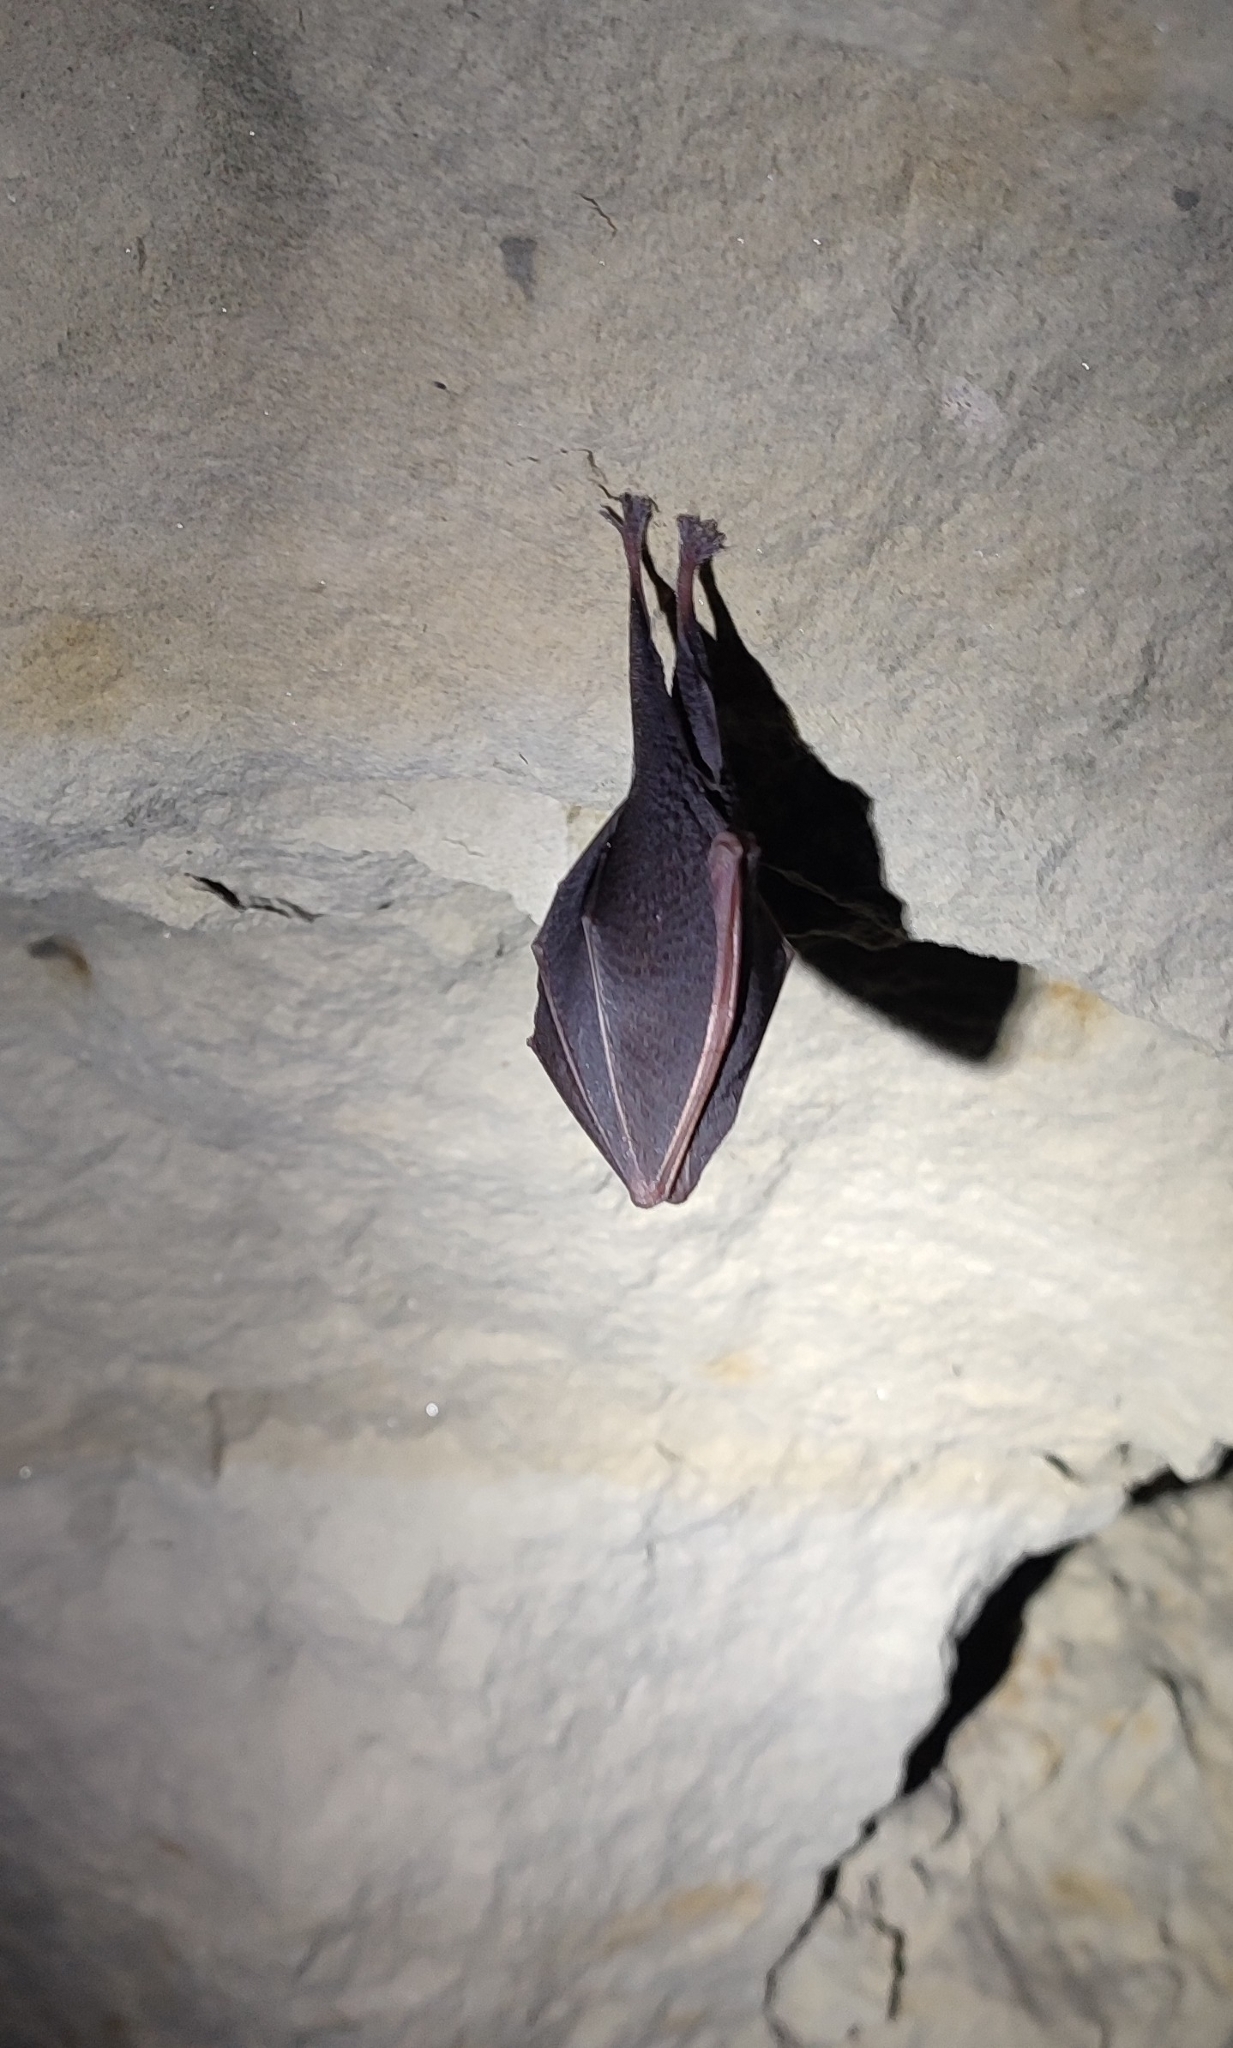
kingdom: Animalia
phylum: Chordata
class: Mammalia
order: Chiroptera
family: Rhinolophidae
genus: Rhinolophus
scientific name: Rhinolophus hipposideros
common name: Lesser horseshoe bat
